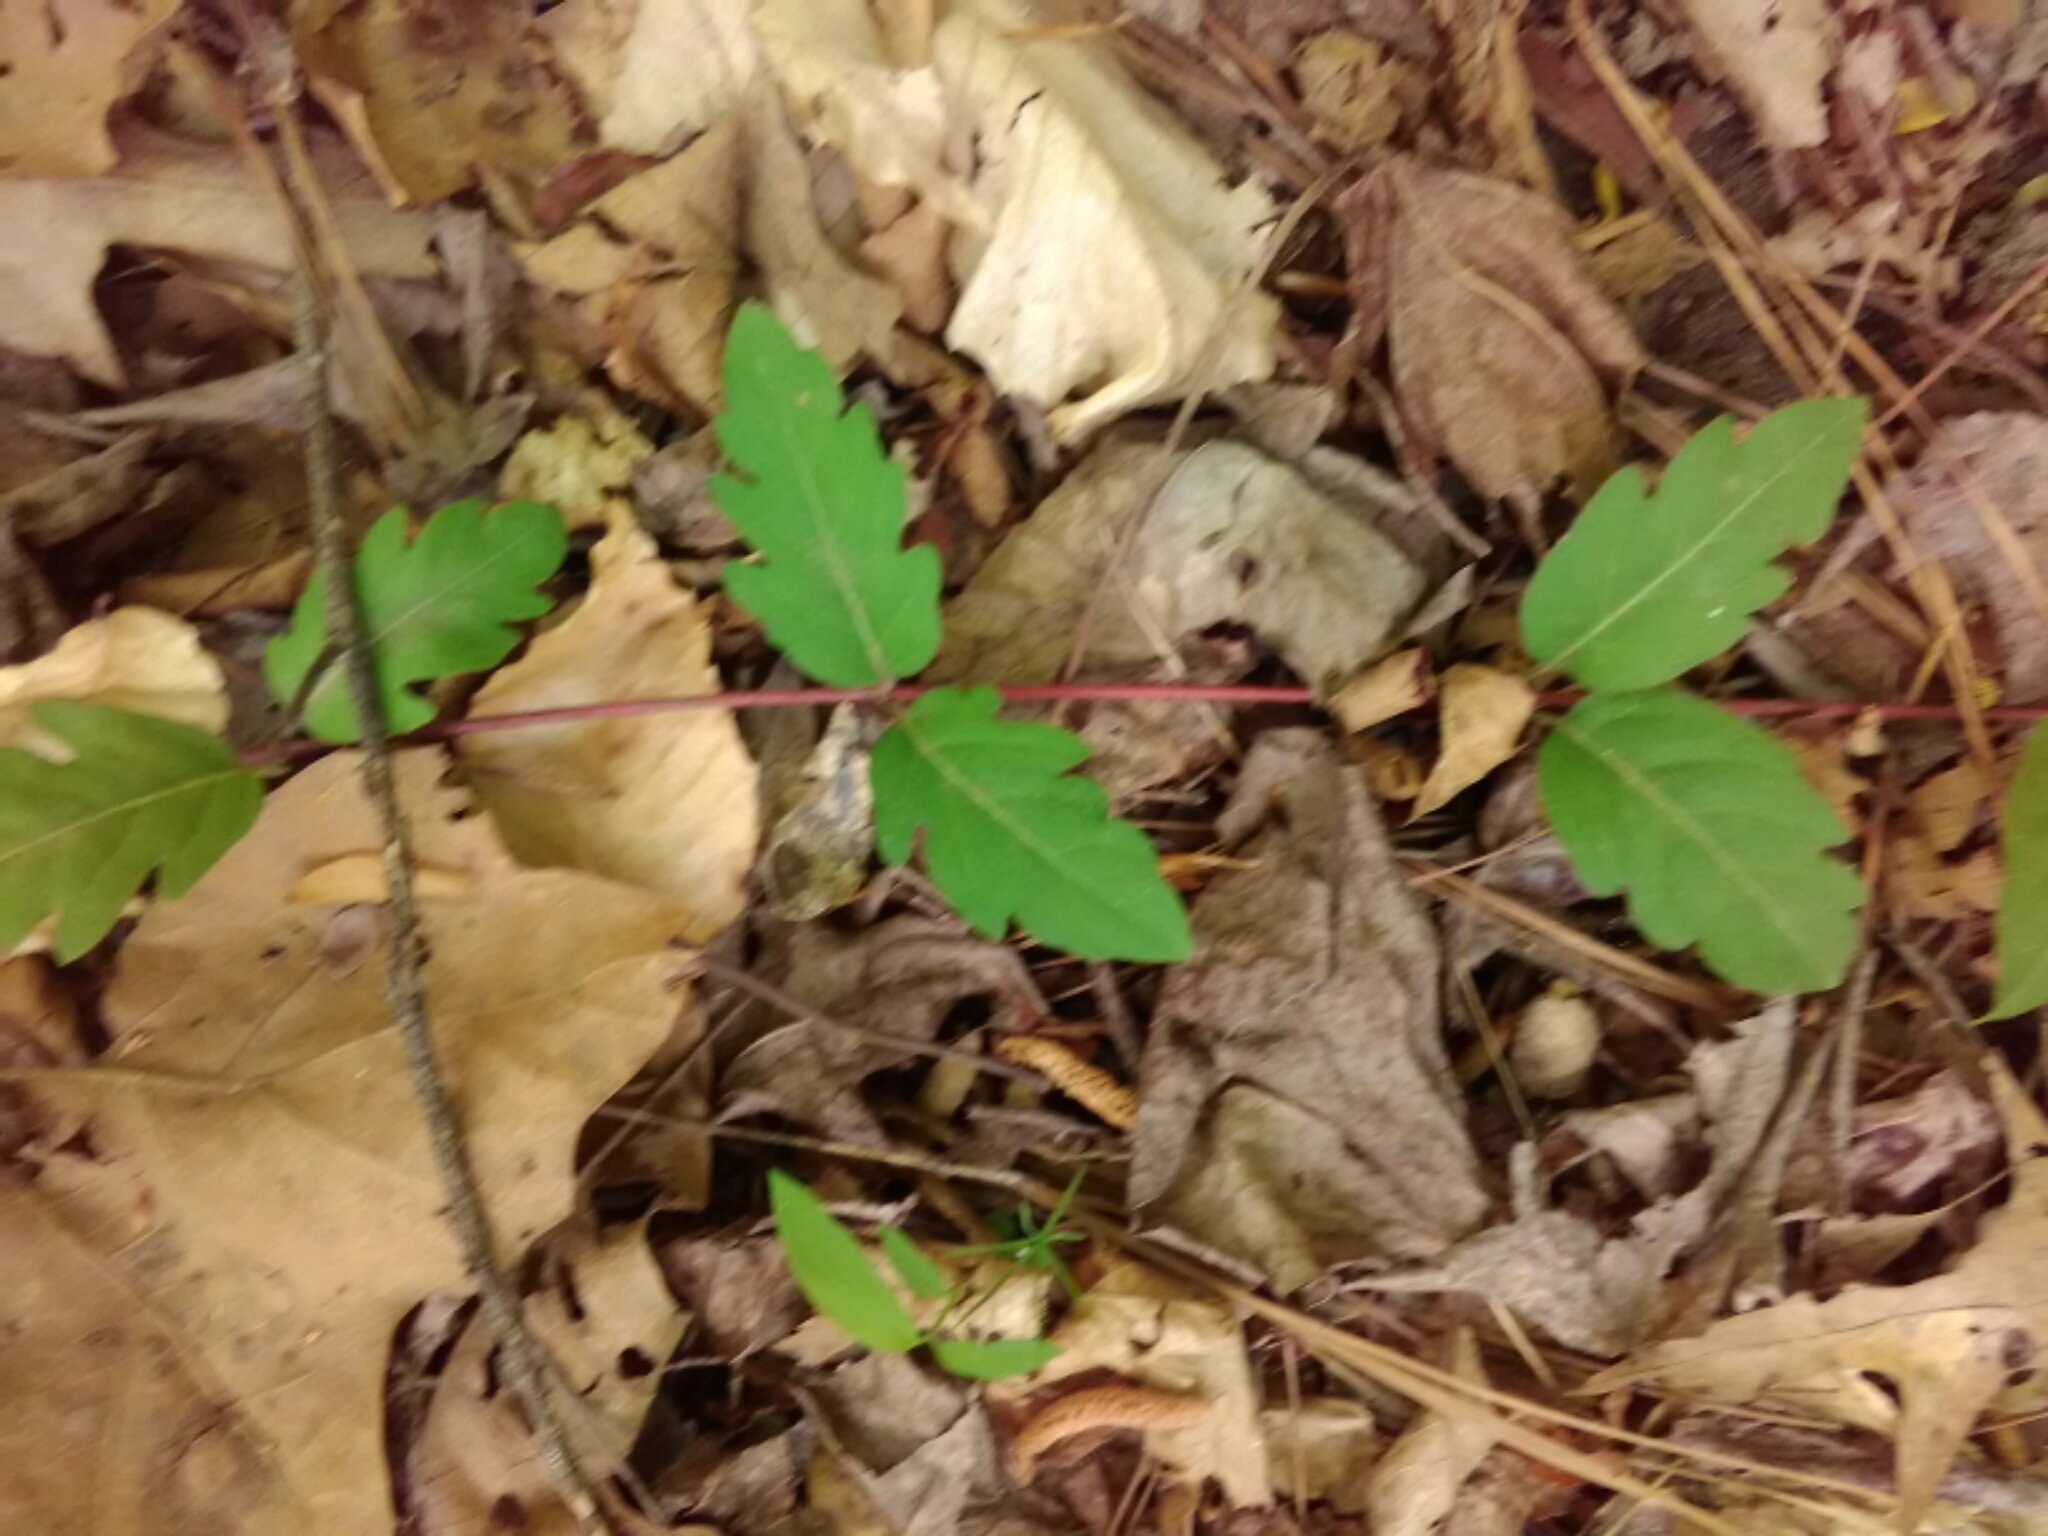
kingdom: Plantae
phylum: Tracheophyta
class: Magnoliopsida
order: Dipsacales
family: Caprifoliaceae
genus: Lonicera
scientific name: Lonicera japonica
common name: Japanese honeysuckle
